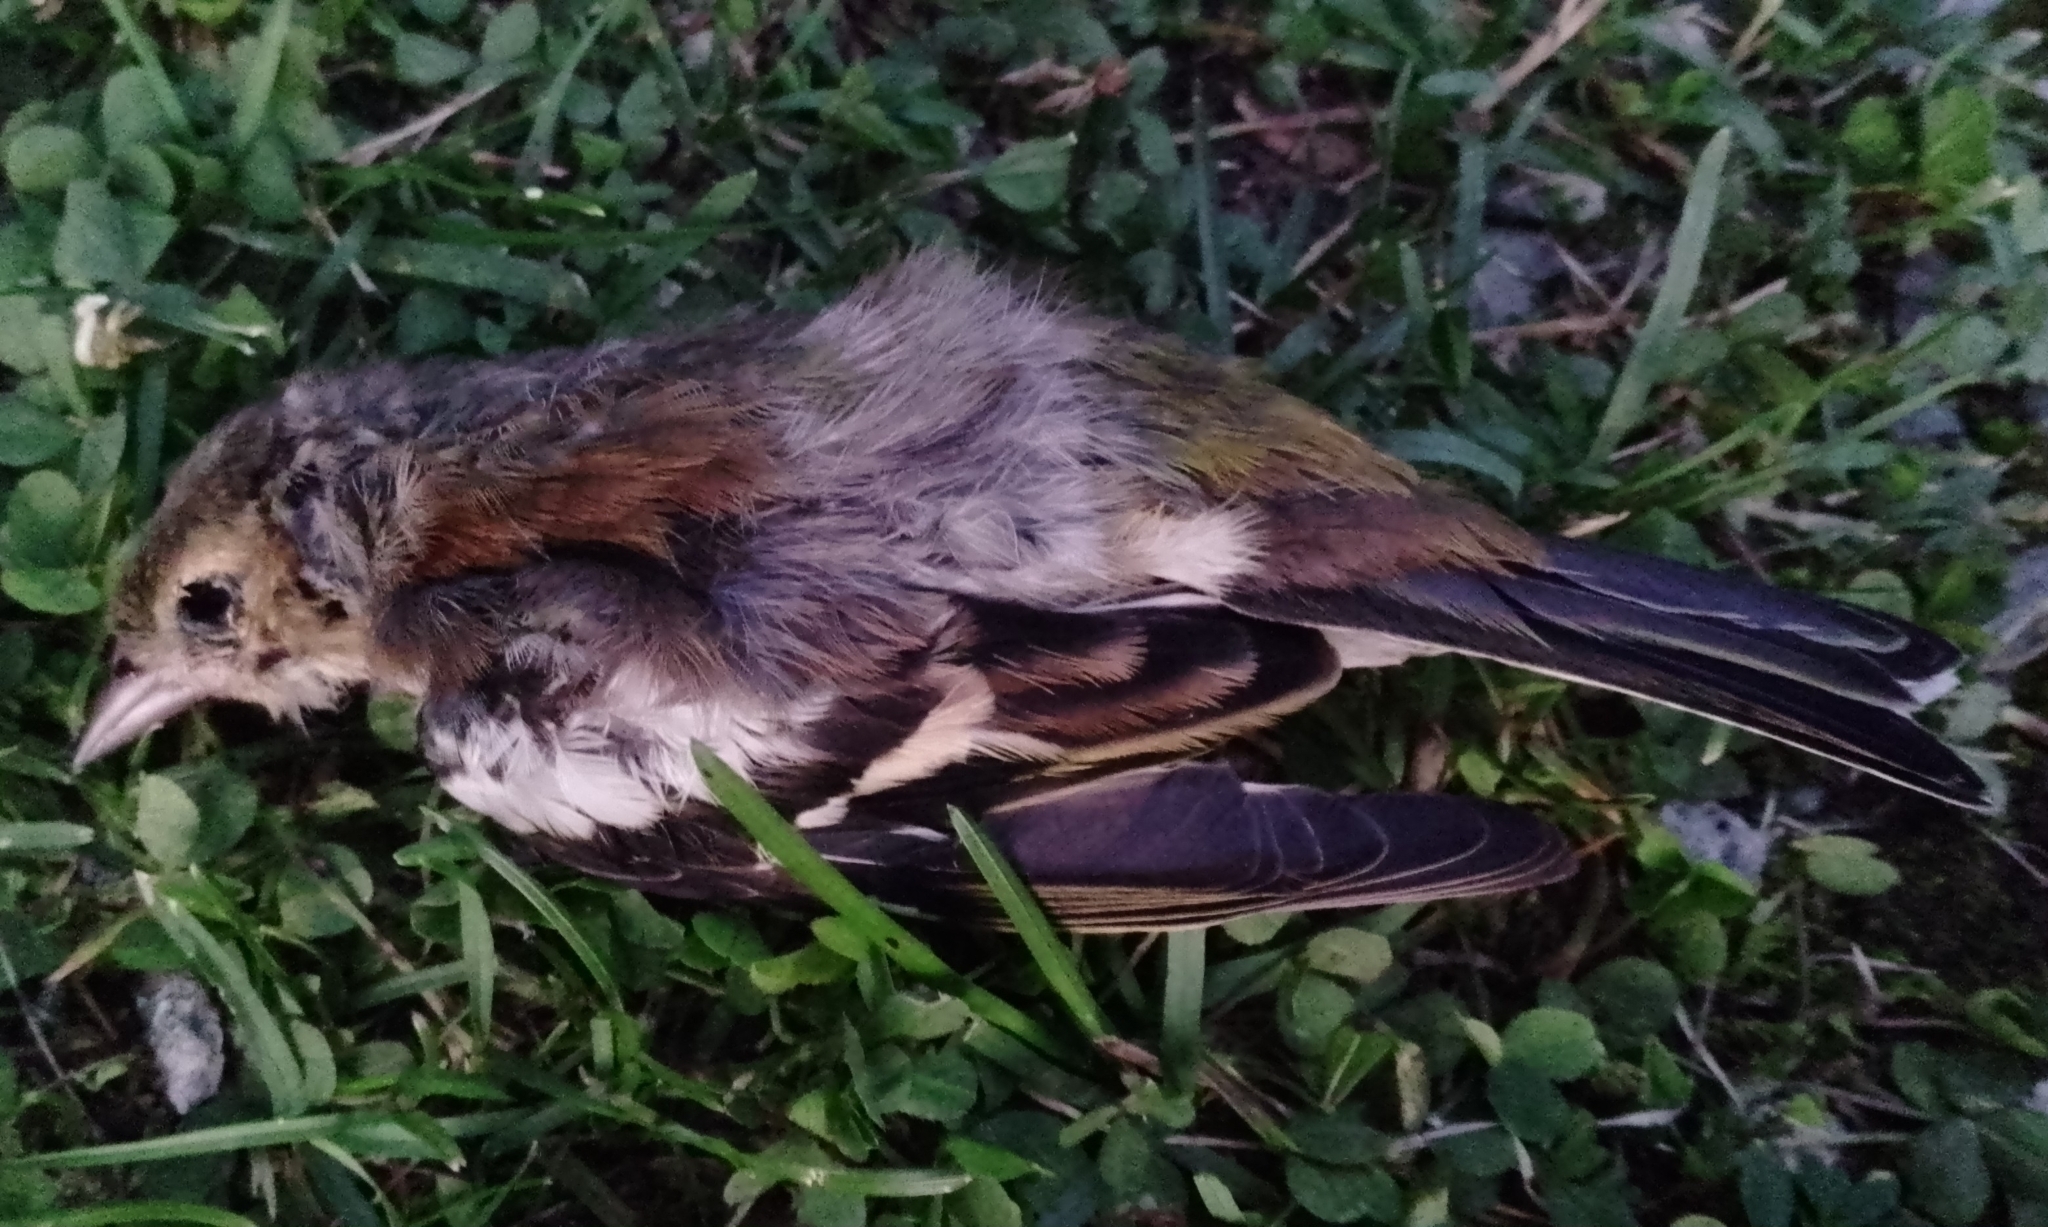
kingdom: Animalia
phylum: Chordata
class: Aves
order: Passeriformes
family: Fringillidae
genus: Fringilla
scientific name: Fringilla coelebs
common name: Common chaffinch
